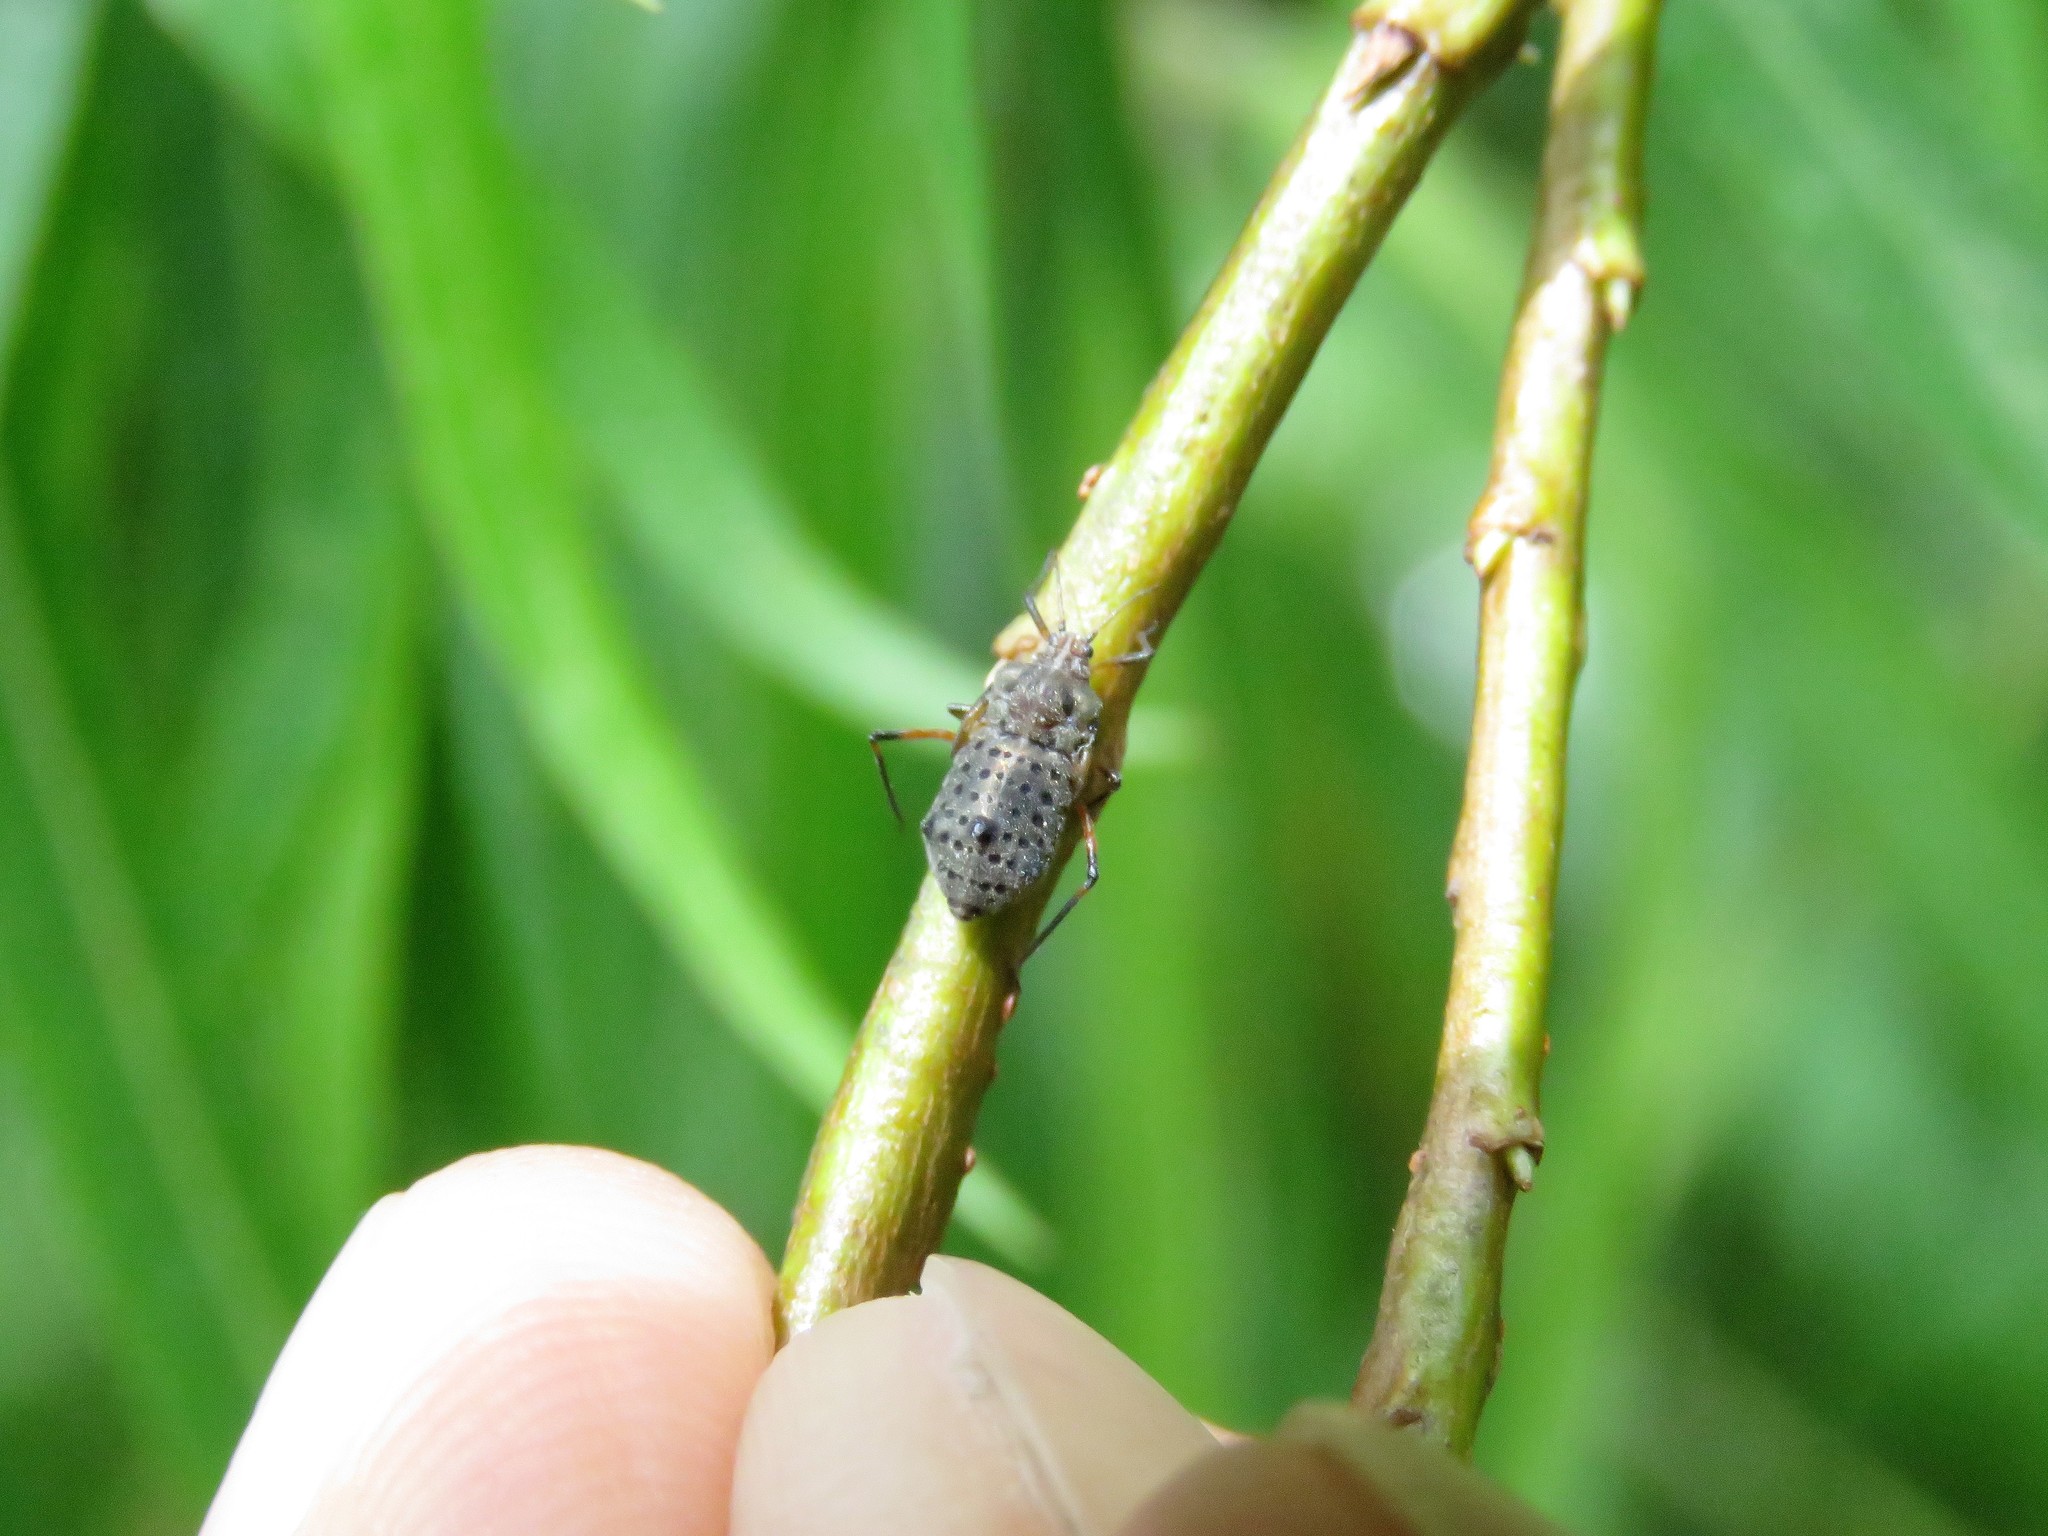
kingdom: Animalia
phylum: Arthropoda
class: Insecta
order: Hemiptera
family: Aphididae
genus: Tuberolachnus
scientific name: Tuberolachnus salignus
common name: Giant willow aphid
